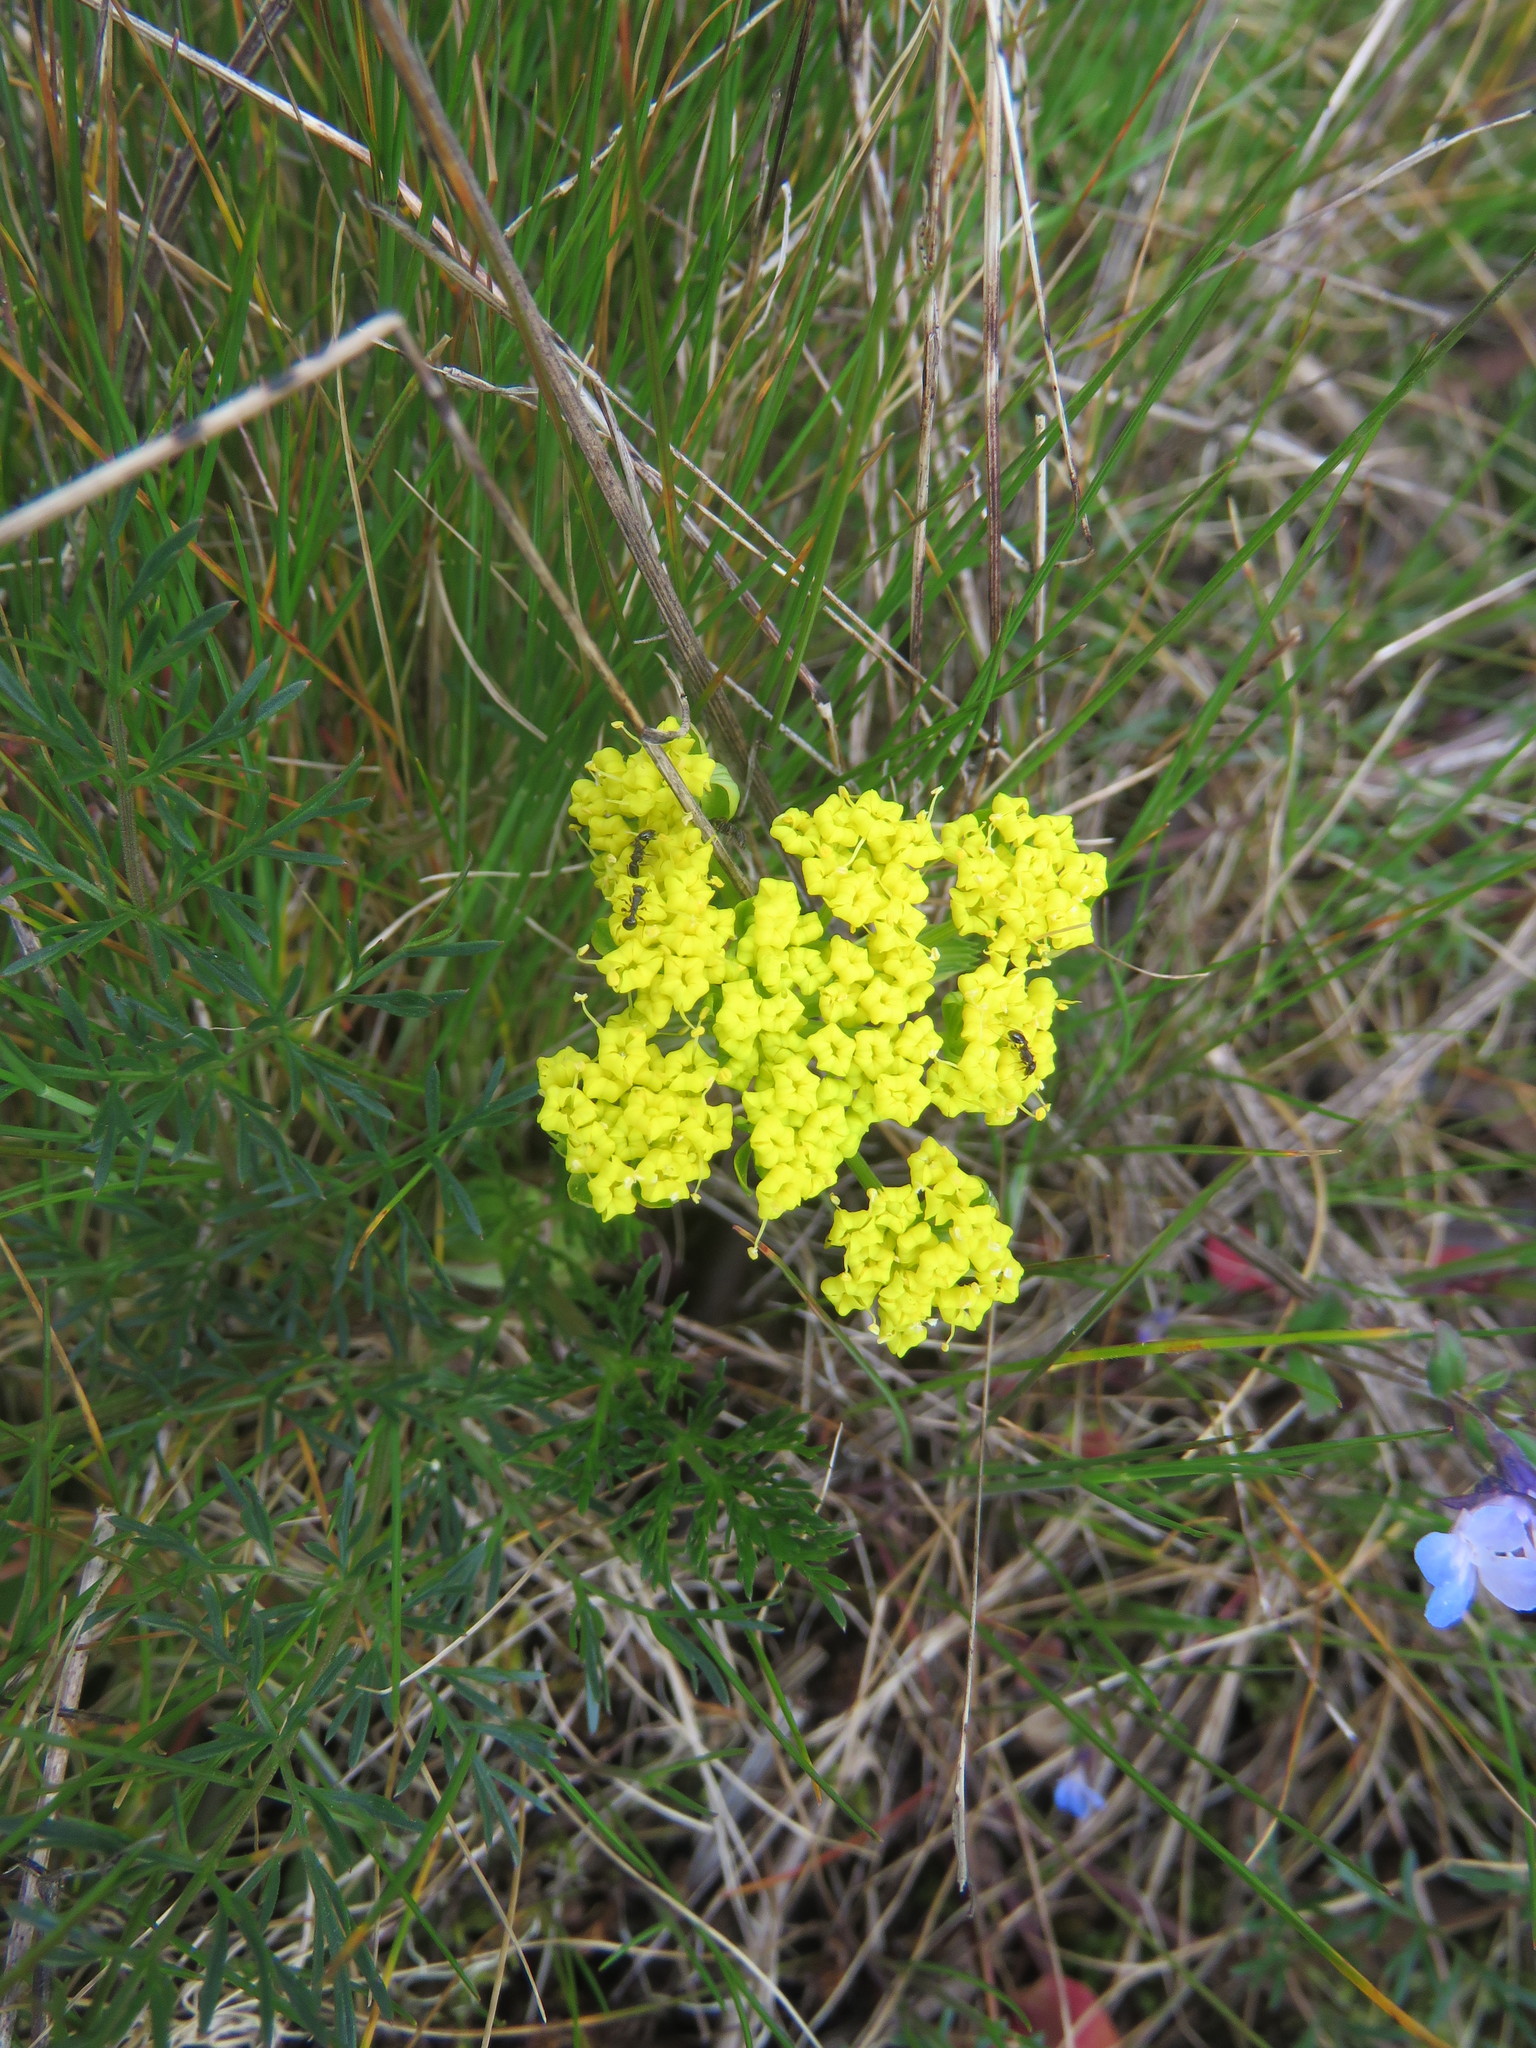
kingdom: Plantae
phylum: Tracheophyta
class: Magnoliopsida
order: Apiales
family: Apiaceae
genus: Lomatium
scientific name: Lomatium utriculatum
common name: Fine-leaf desert-parsley
